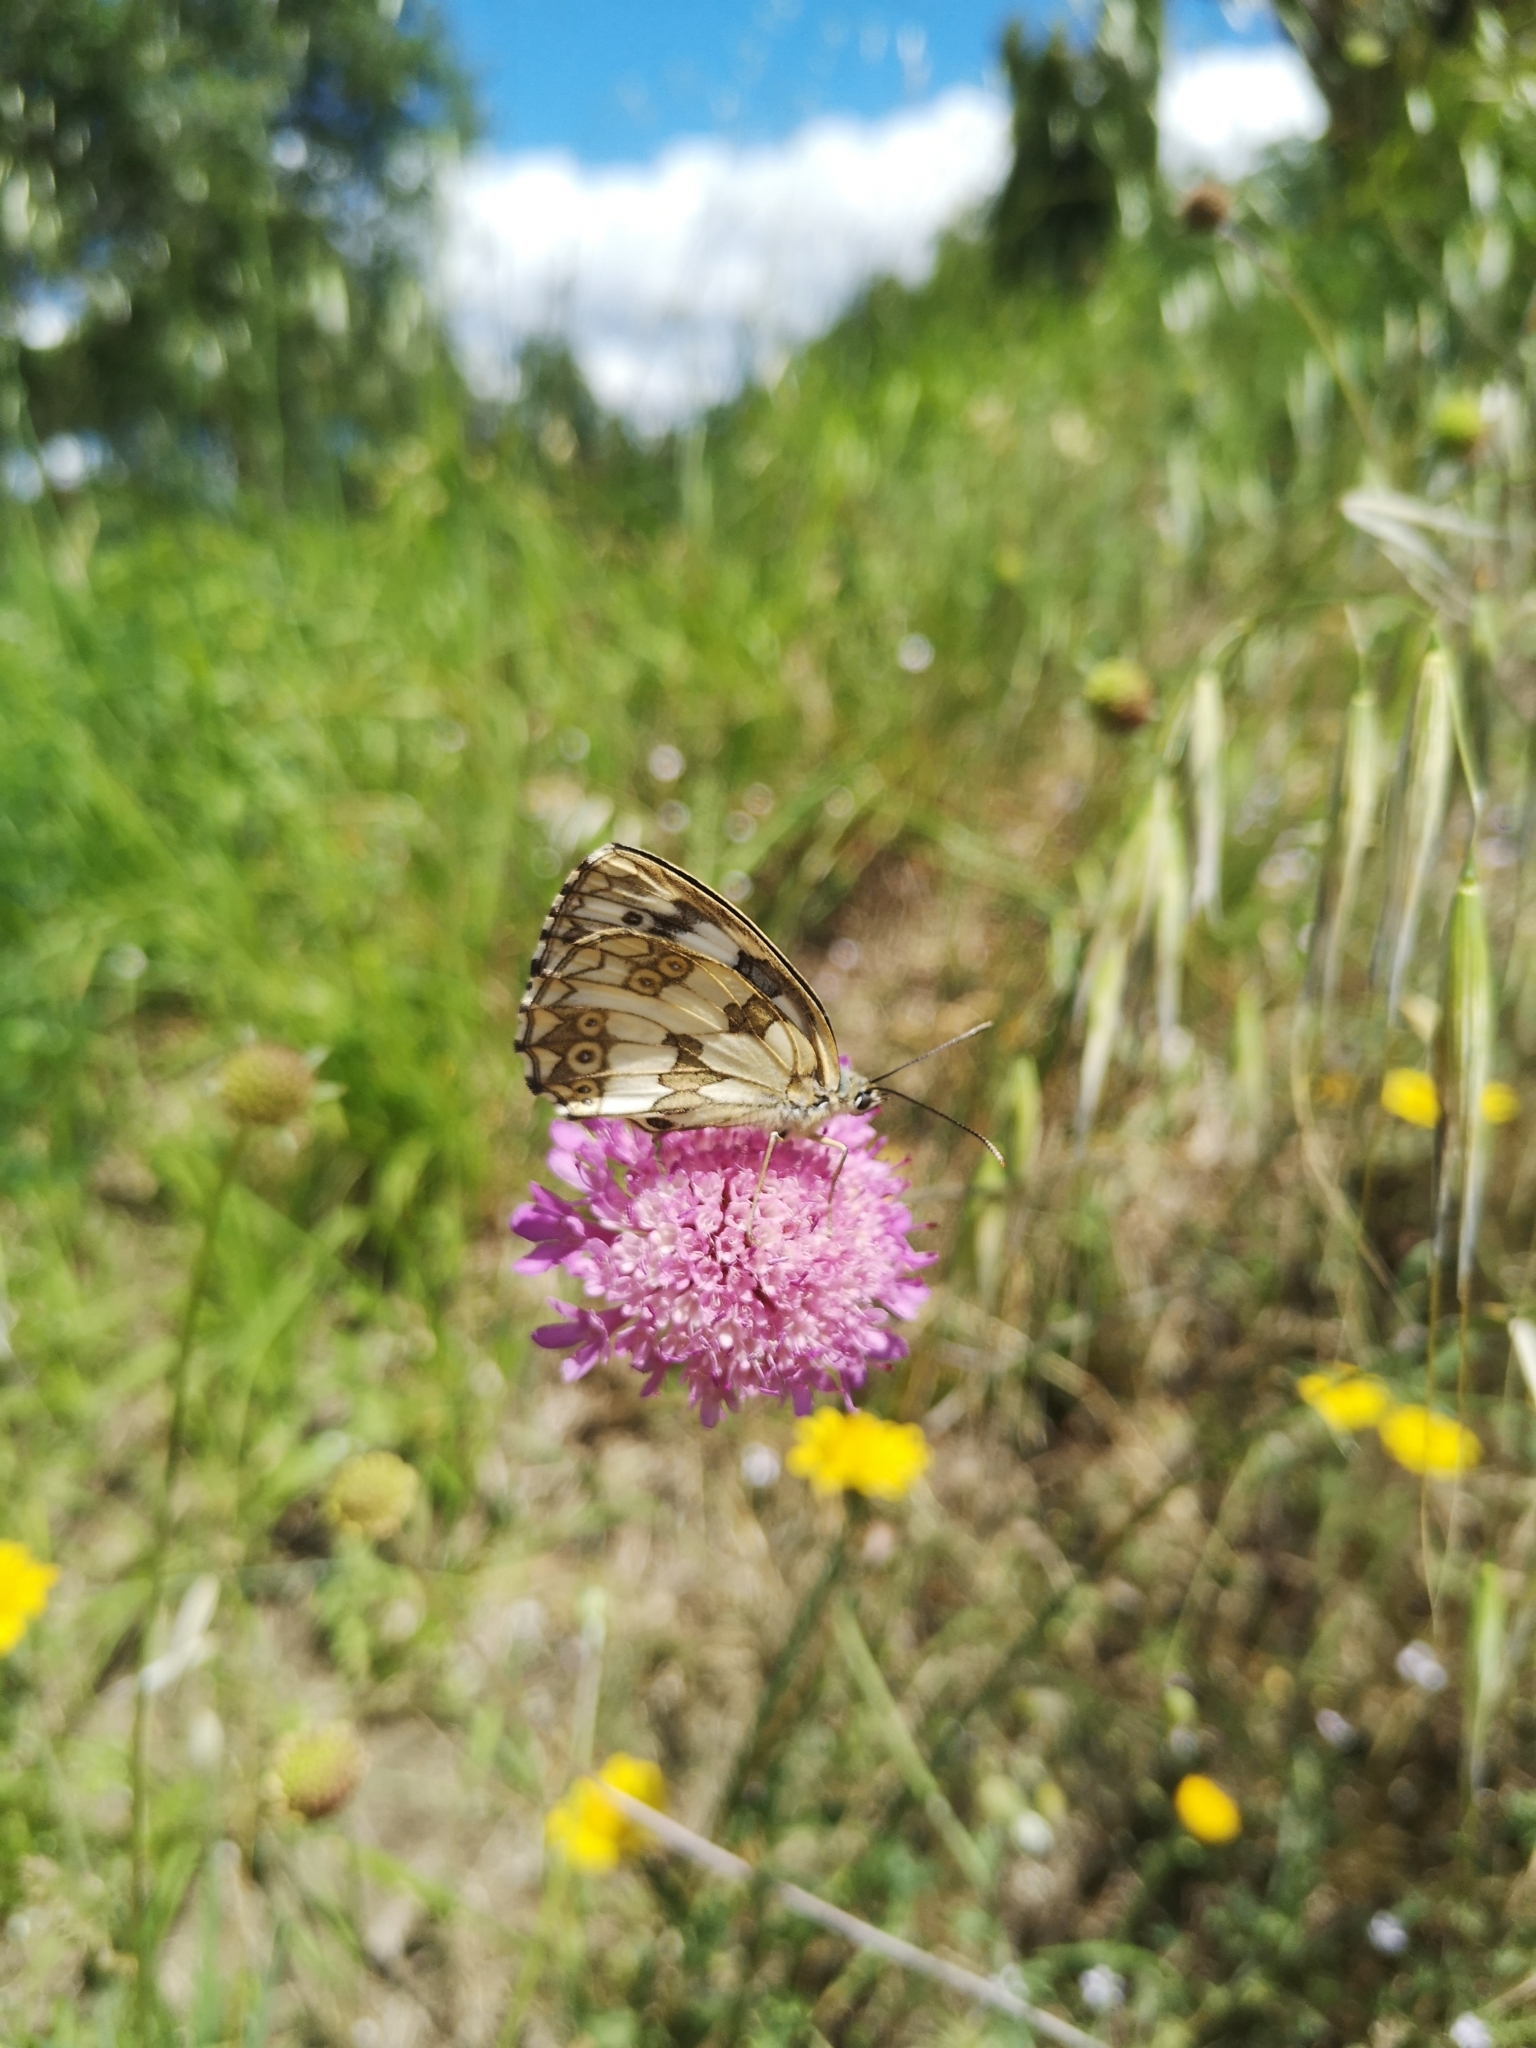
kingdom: Animalia
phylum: Arthropoda
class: Insecta
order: Lepidoptera
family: Nymphalidae
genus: Melanargia
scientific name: Melanargia galathea
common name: Marbled white
